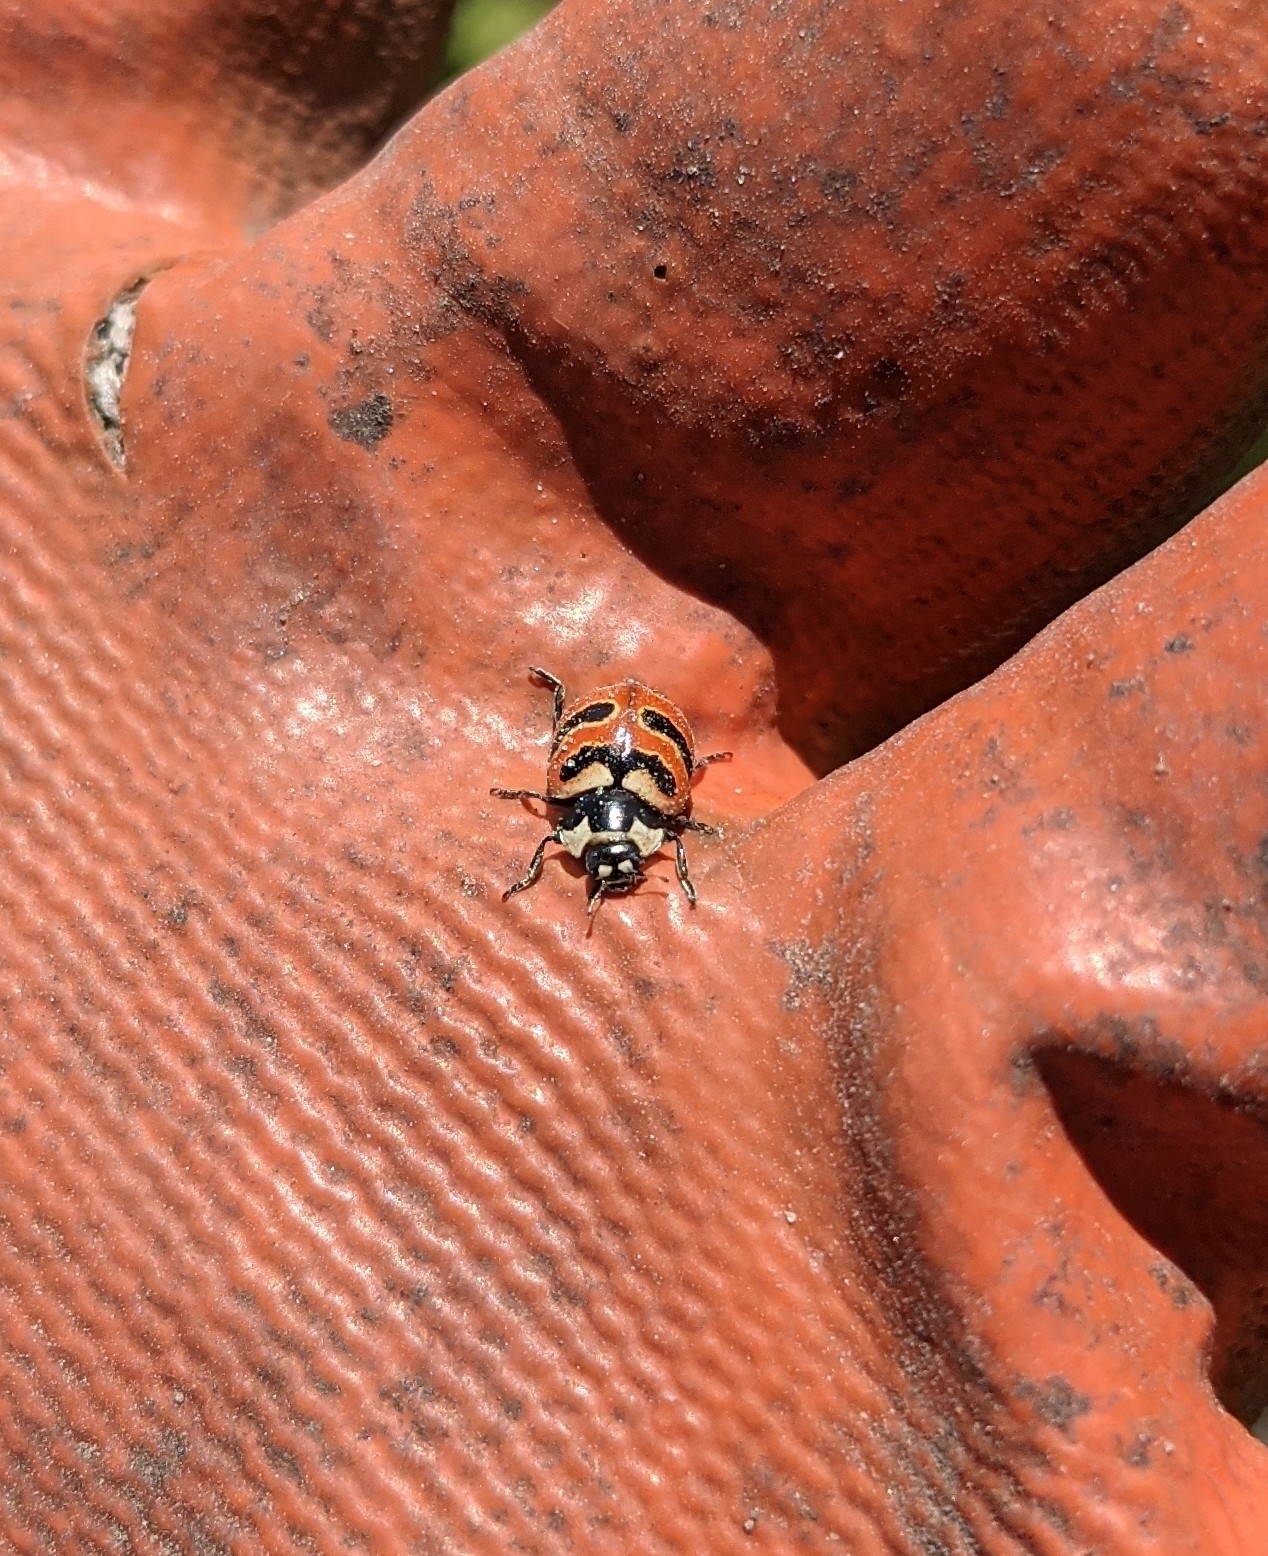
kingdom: Animalia
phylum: Arthropoda
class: Insecta
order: Coleoptera
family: Coccinellidae
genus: Coccinella
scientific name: Coccinella trifasciata
